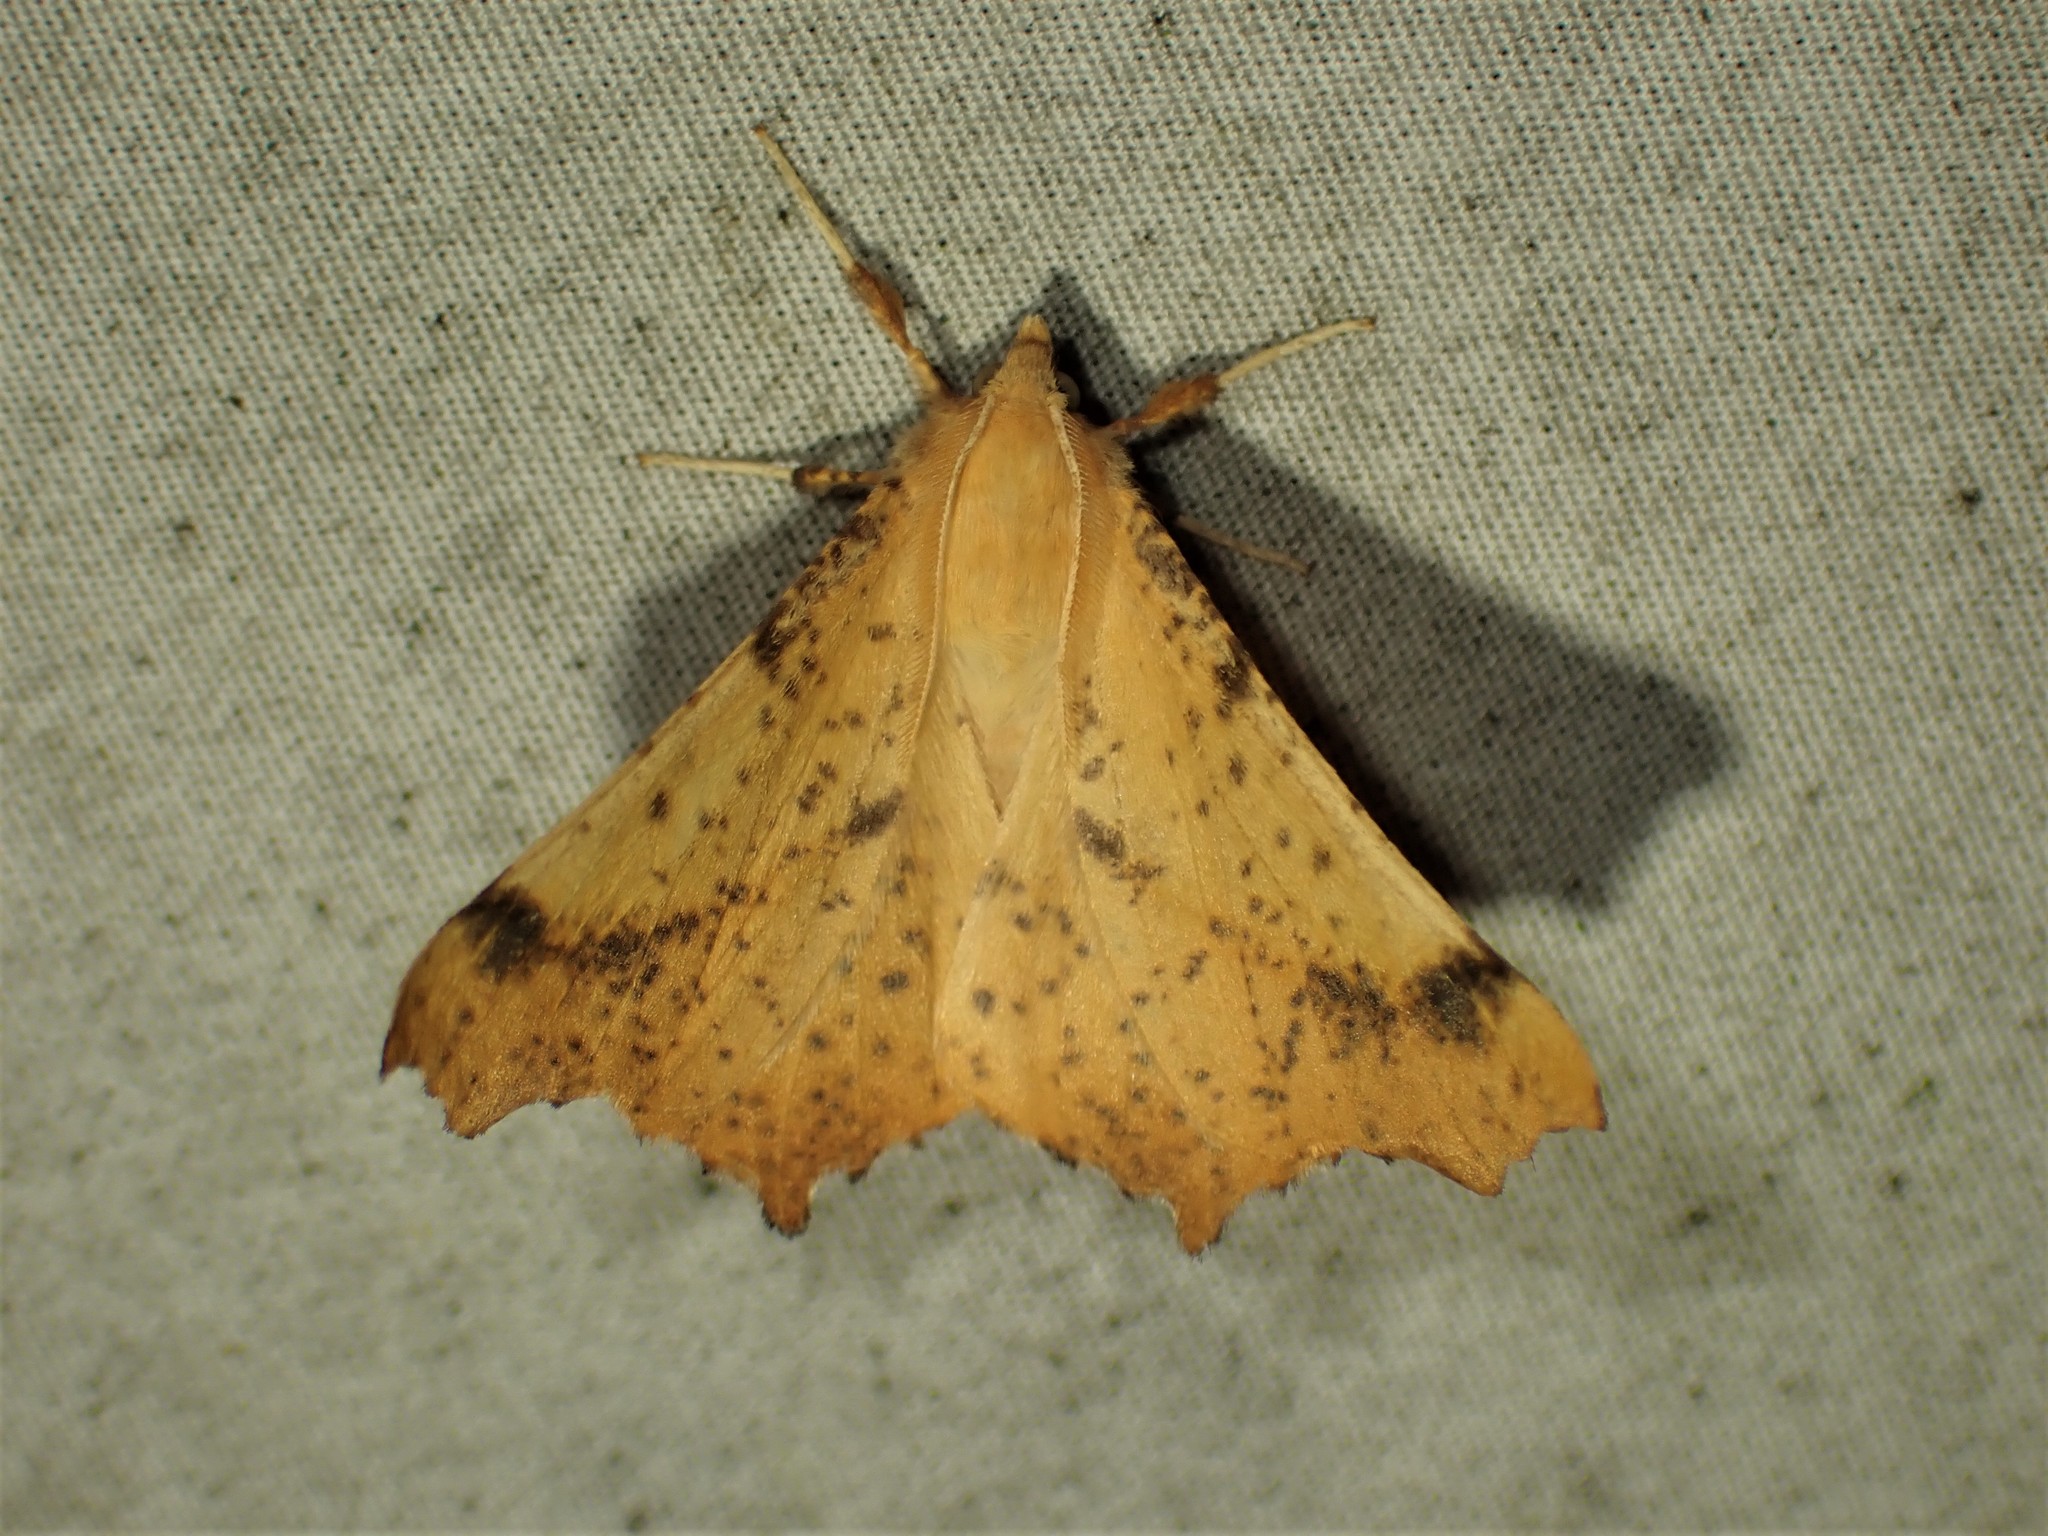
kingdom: Animalia
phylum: Arthropoda
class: Insecta
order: Lepidoptera
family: Geometridae
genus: Ennomos
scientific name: Ennomos magnaria
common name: Maple spanworm
